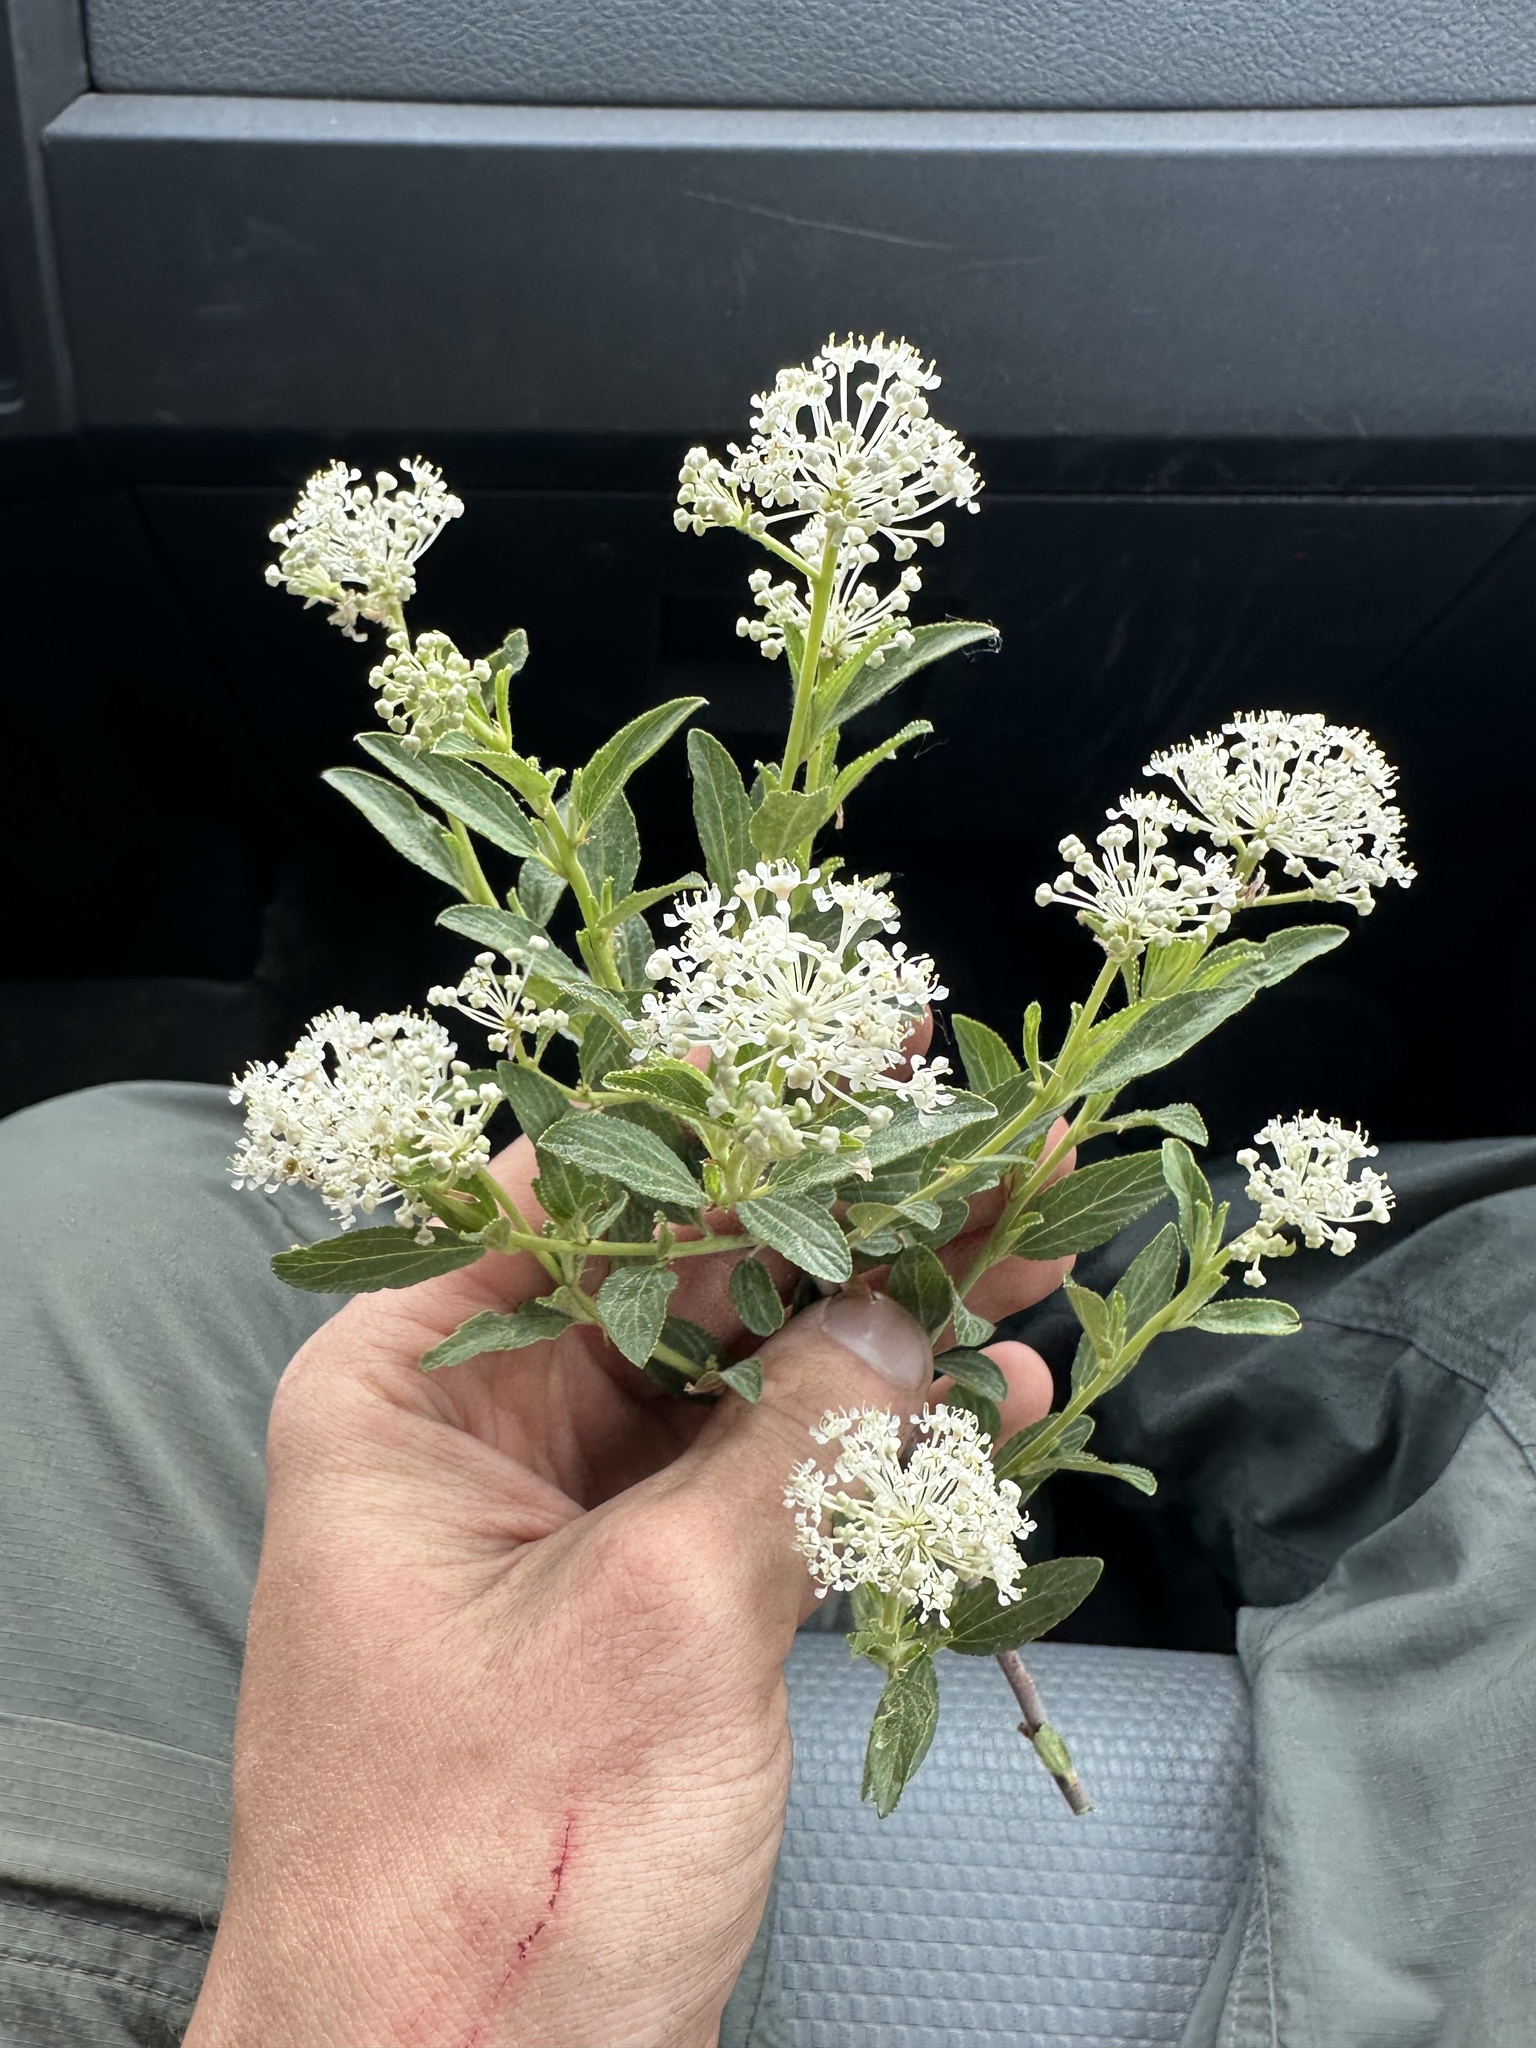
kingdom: Plantae
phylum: Tracheophyta
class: Magnoliopsida
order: Rosales
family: Rhamnaceae
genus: Ceanothus
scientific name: Ceanothus herbaceus
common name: Inland ceanothus
